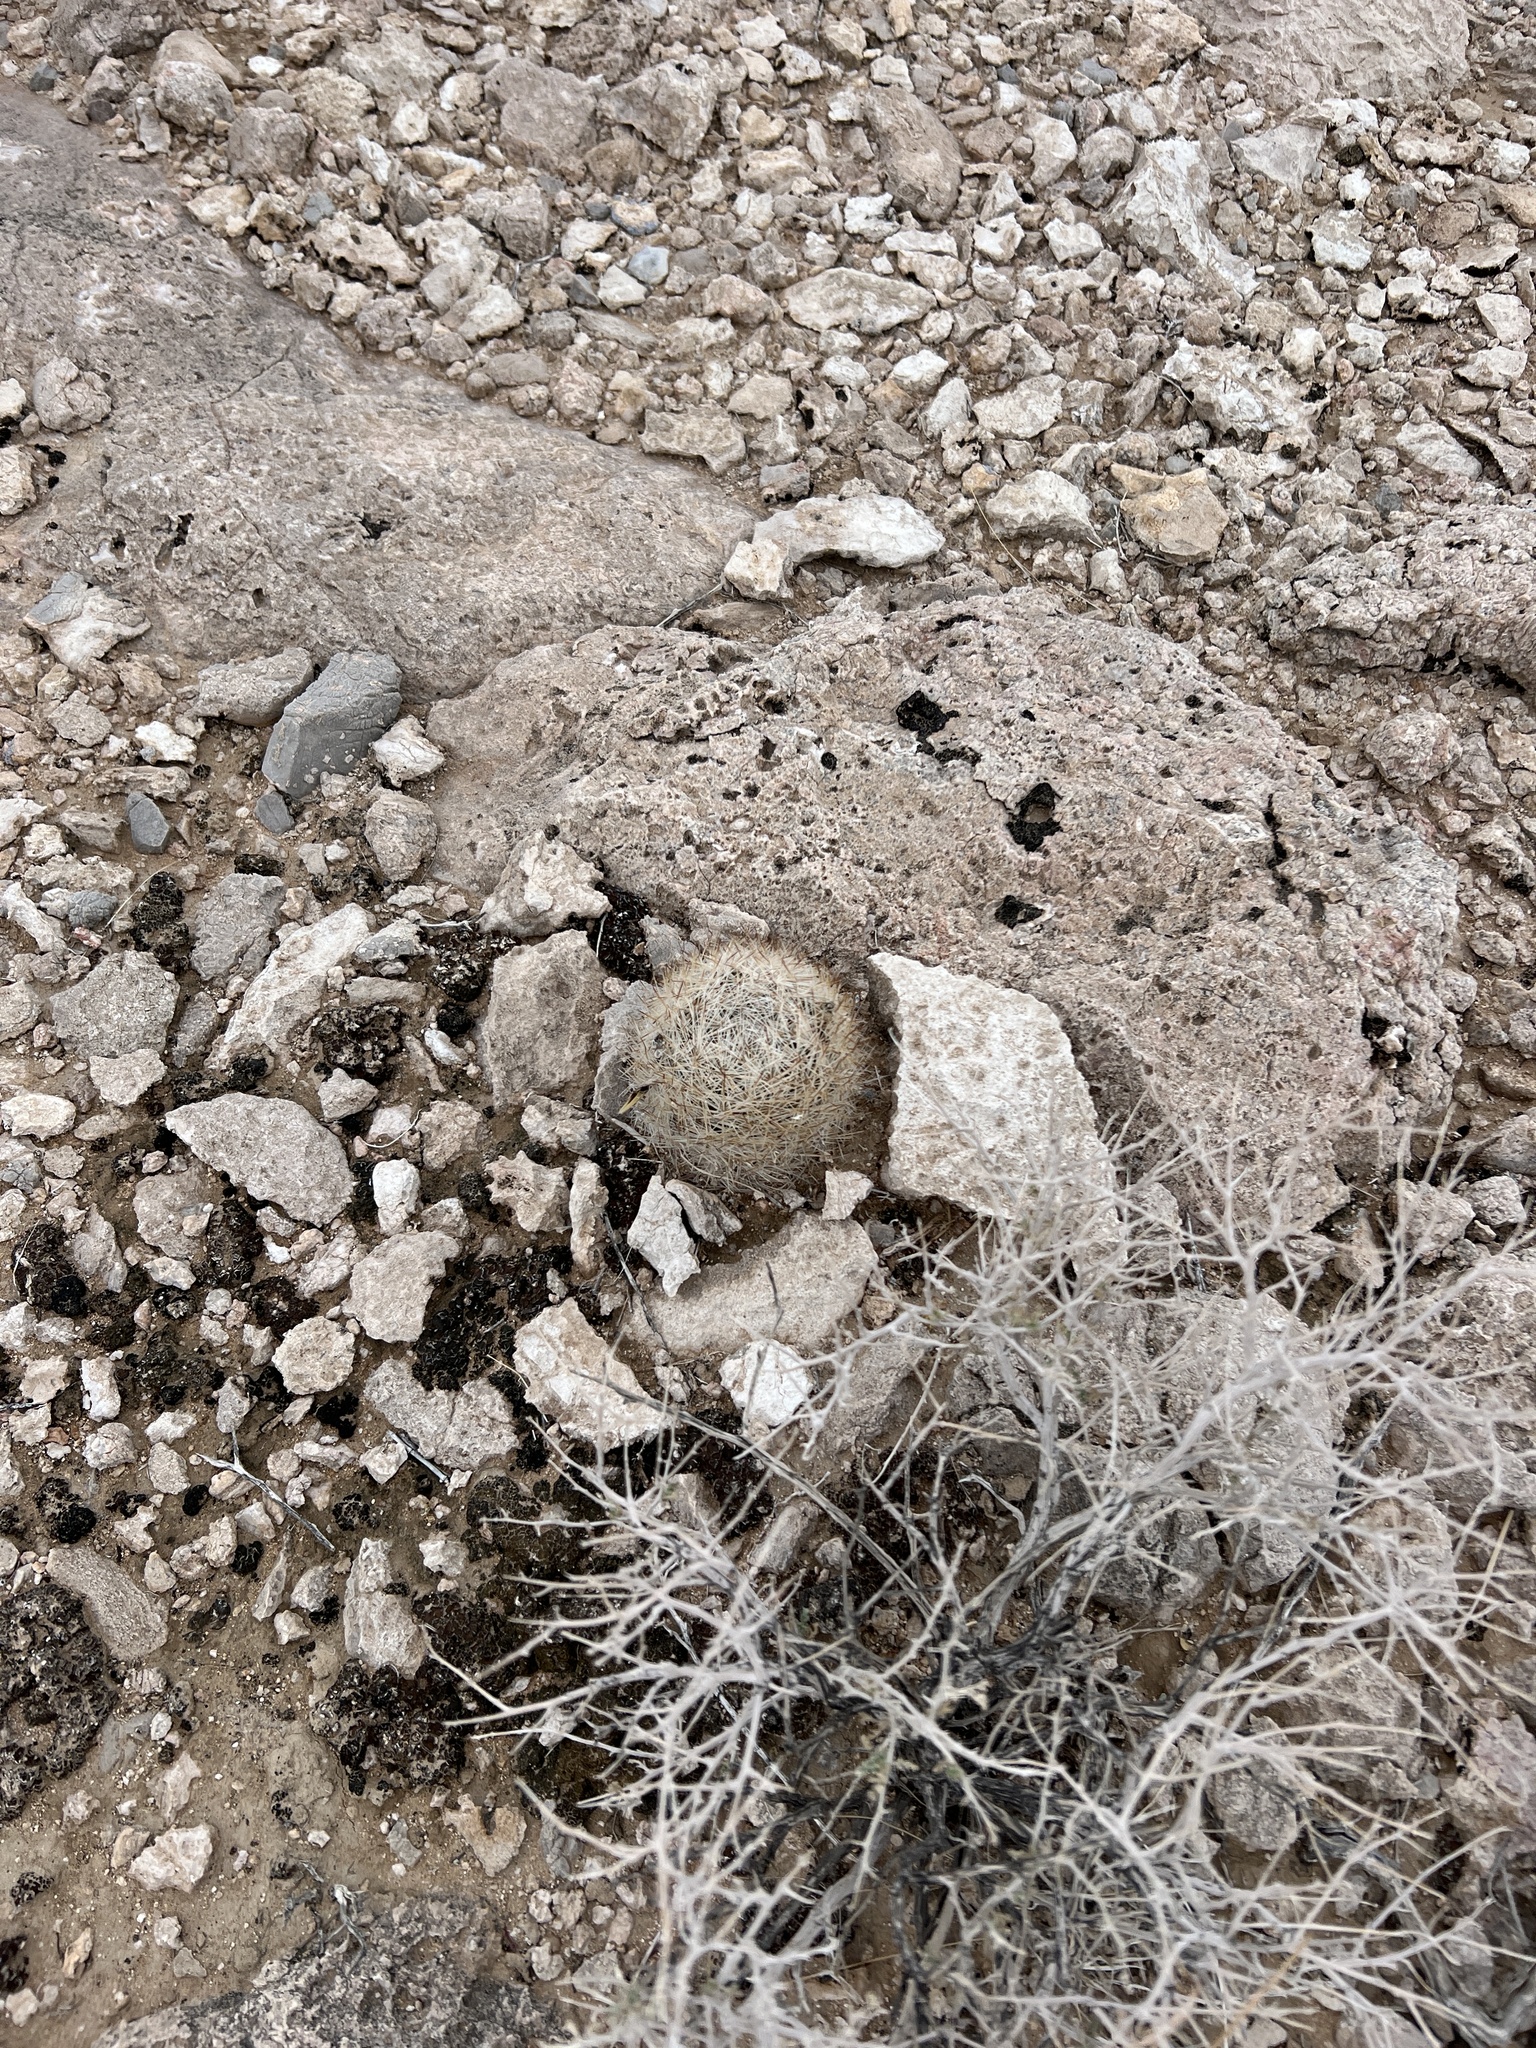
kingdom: Plantae
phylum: Tracheophyta
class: Magnoliopsida
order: Caryophyllales
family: Cactaceae
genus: Pelecyphora
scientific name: Pelecyphora dasyacantha
